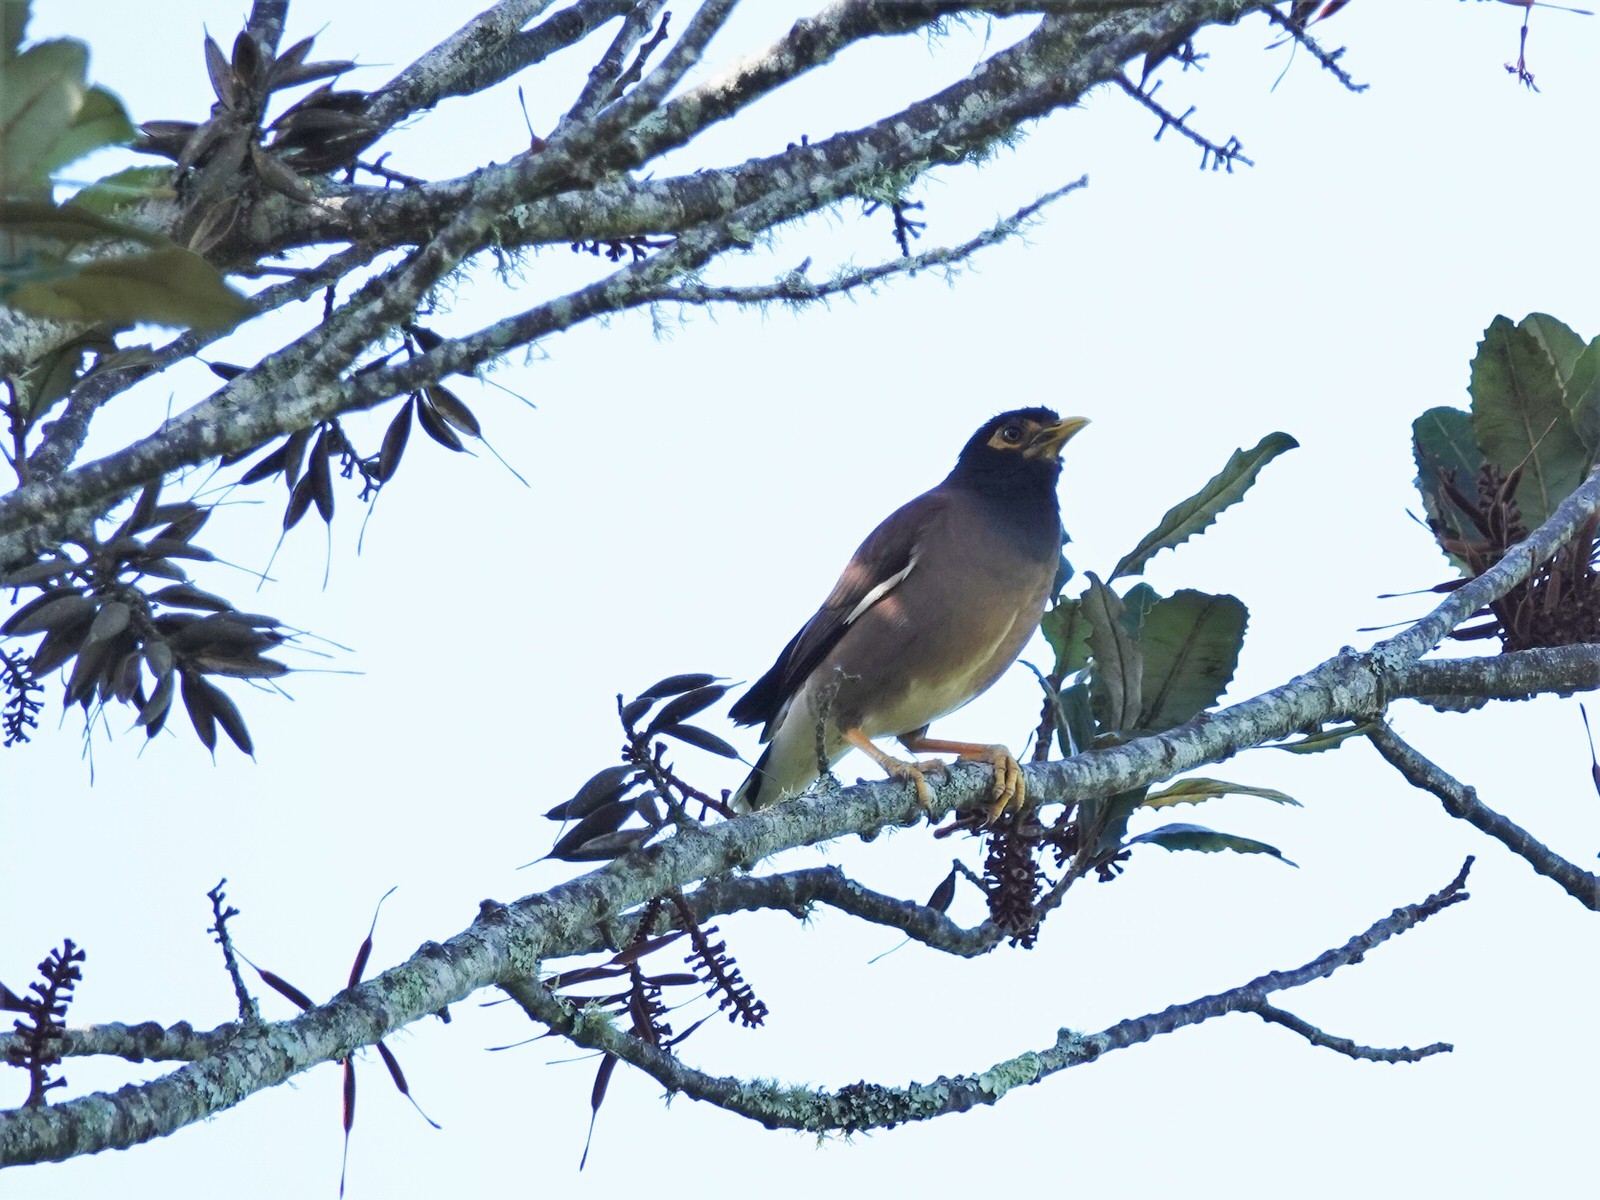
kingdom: Animalia
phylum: Chordata
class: Aves
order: Passeriformes
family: Sturnidae
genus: Acridotheres
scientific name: Acridotheres tristis
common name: Common myna
